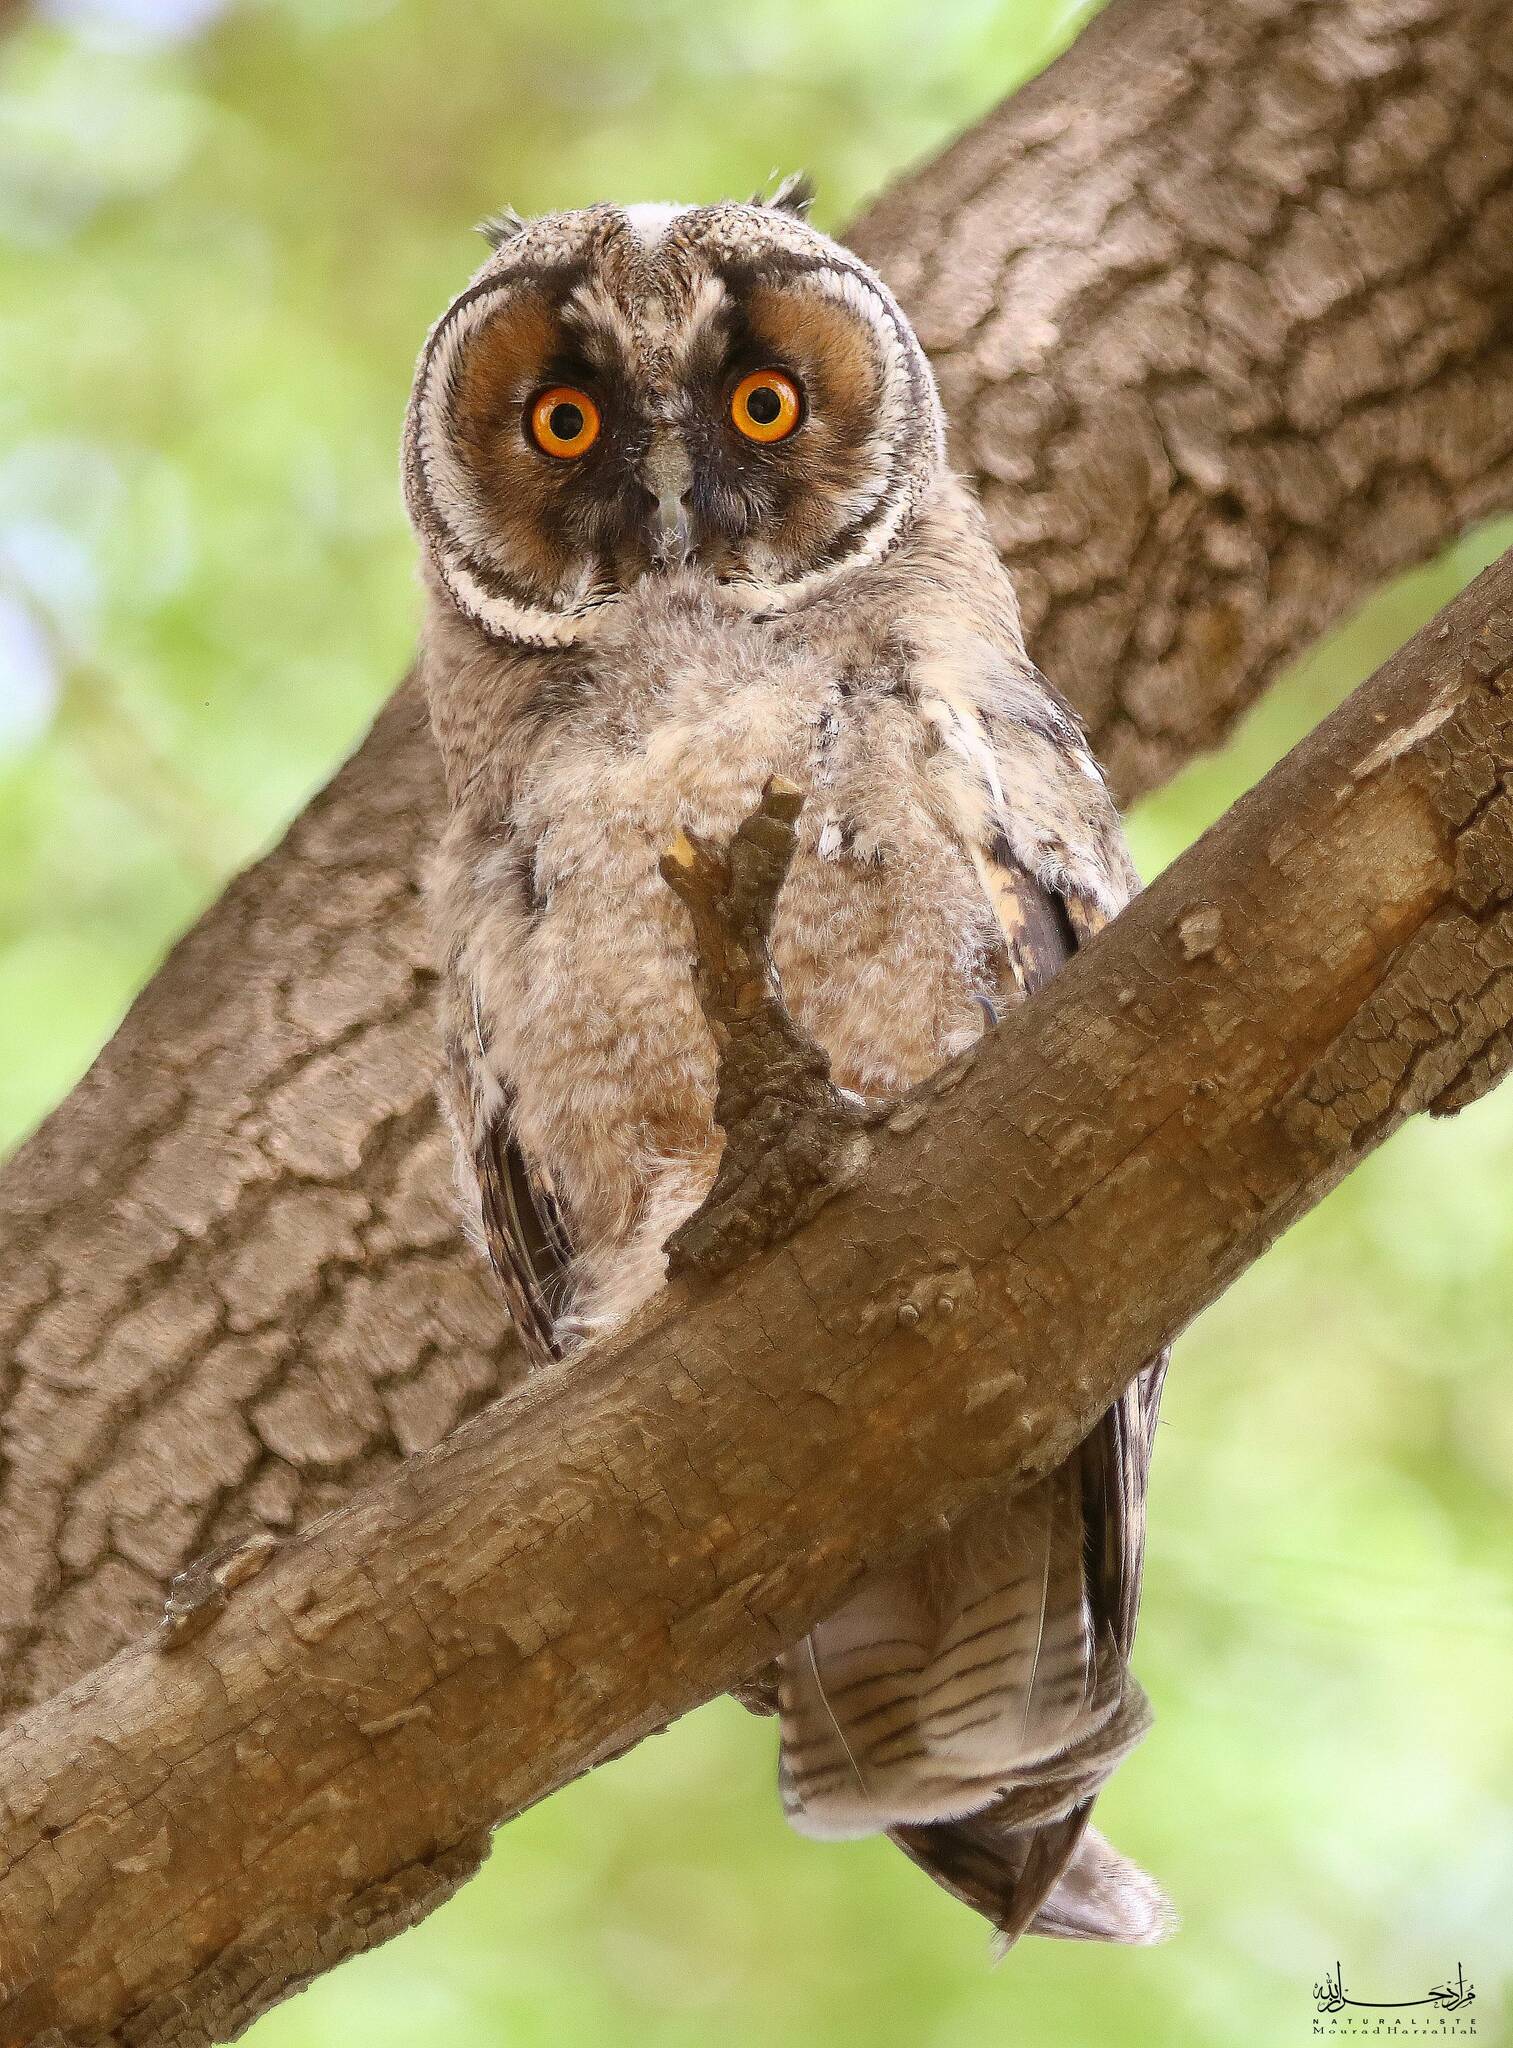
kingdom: Animalia
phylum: Chordata
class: Aves
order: Strigiformes
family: Strigidae
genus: Asio
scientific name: Asio otus
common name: Long-eared owl
